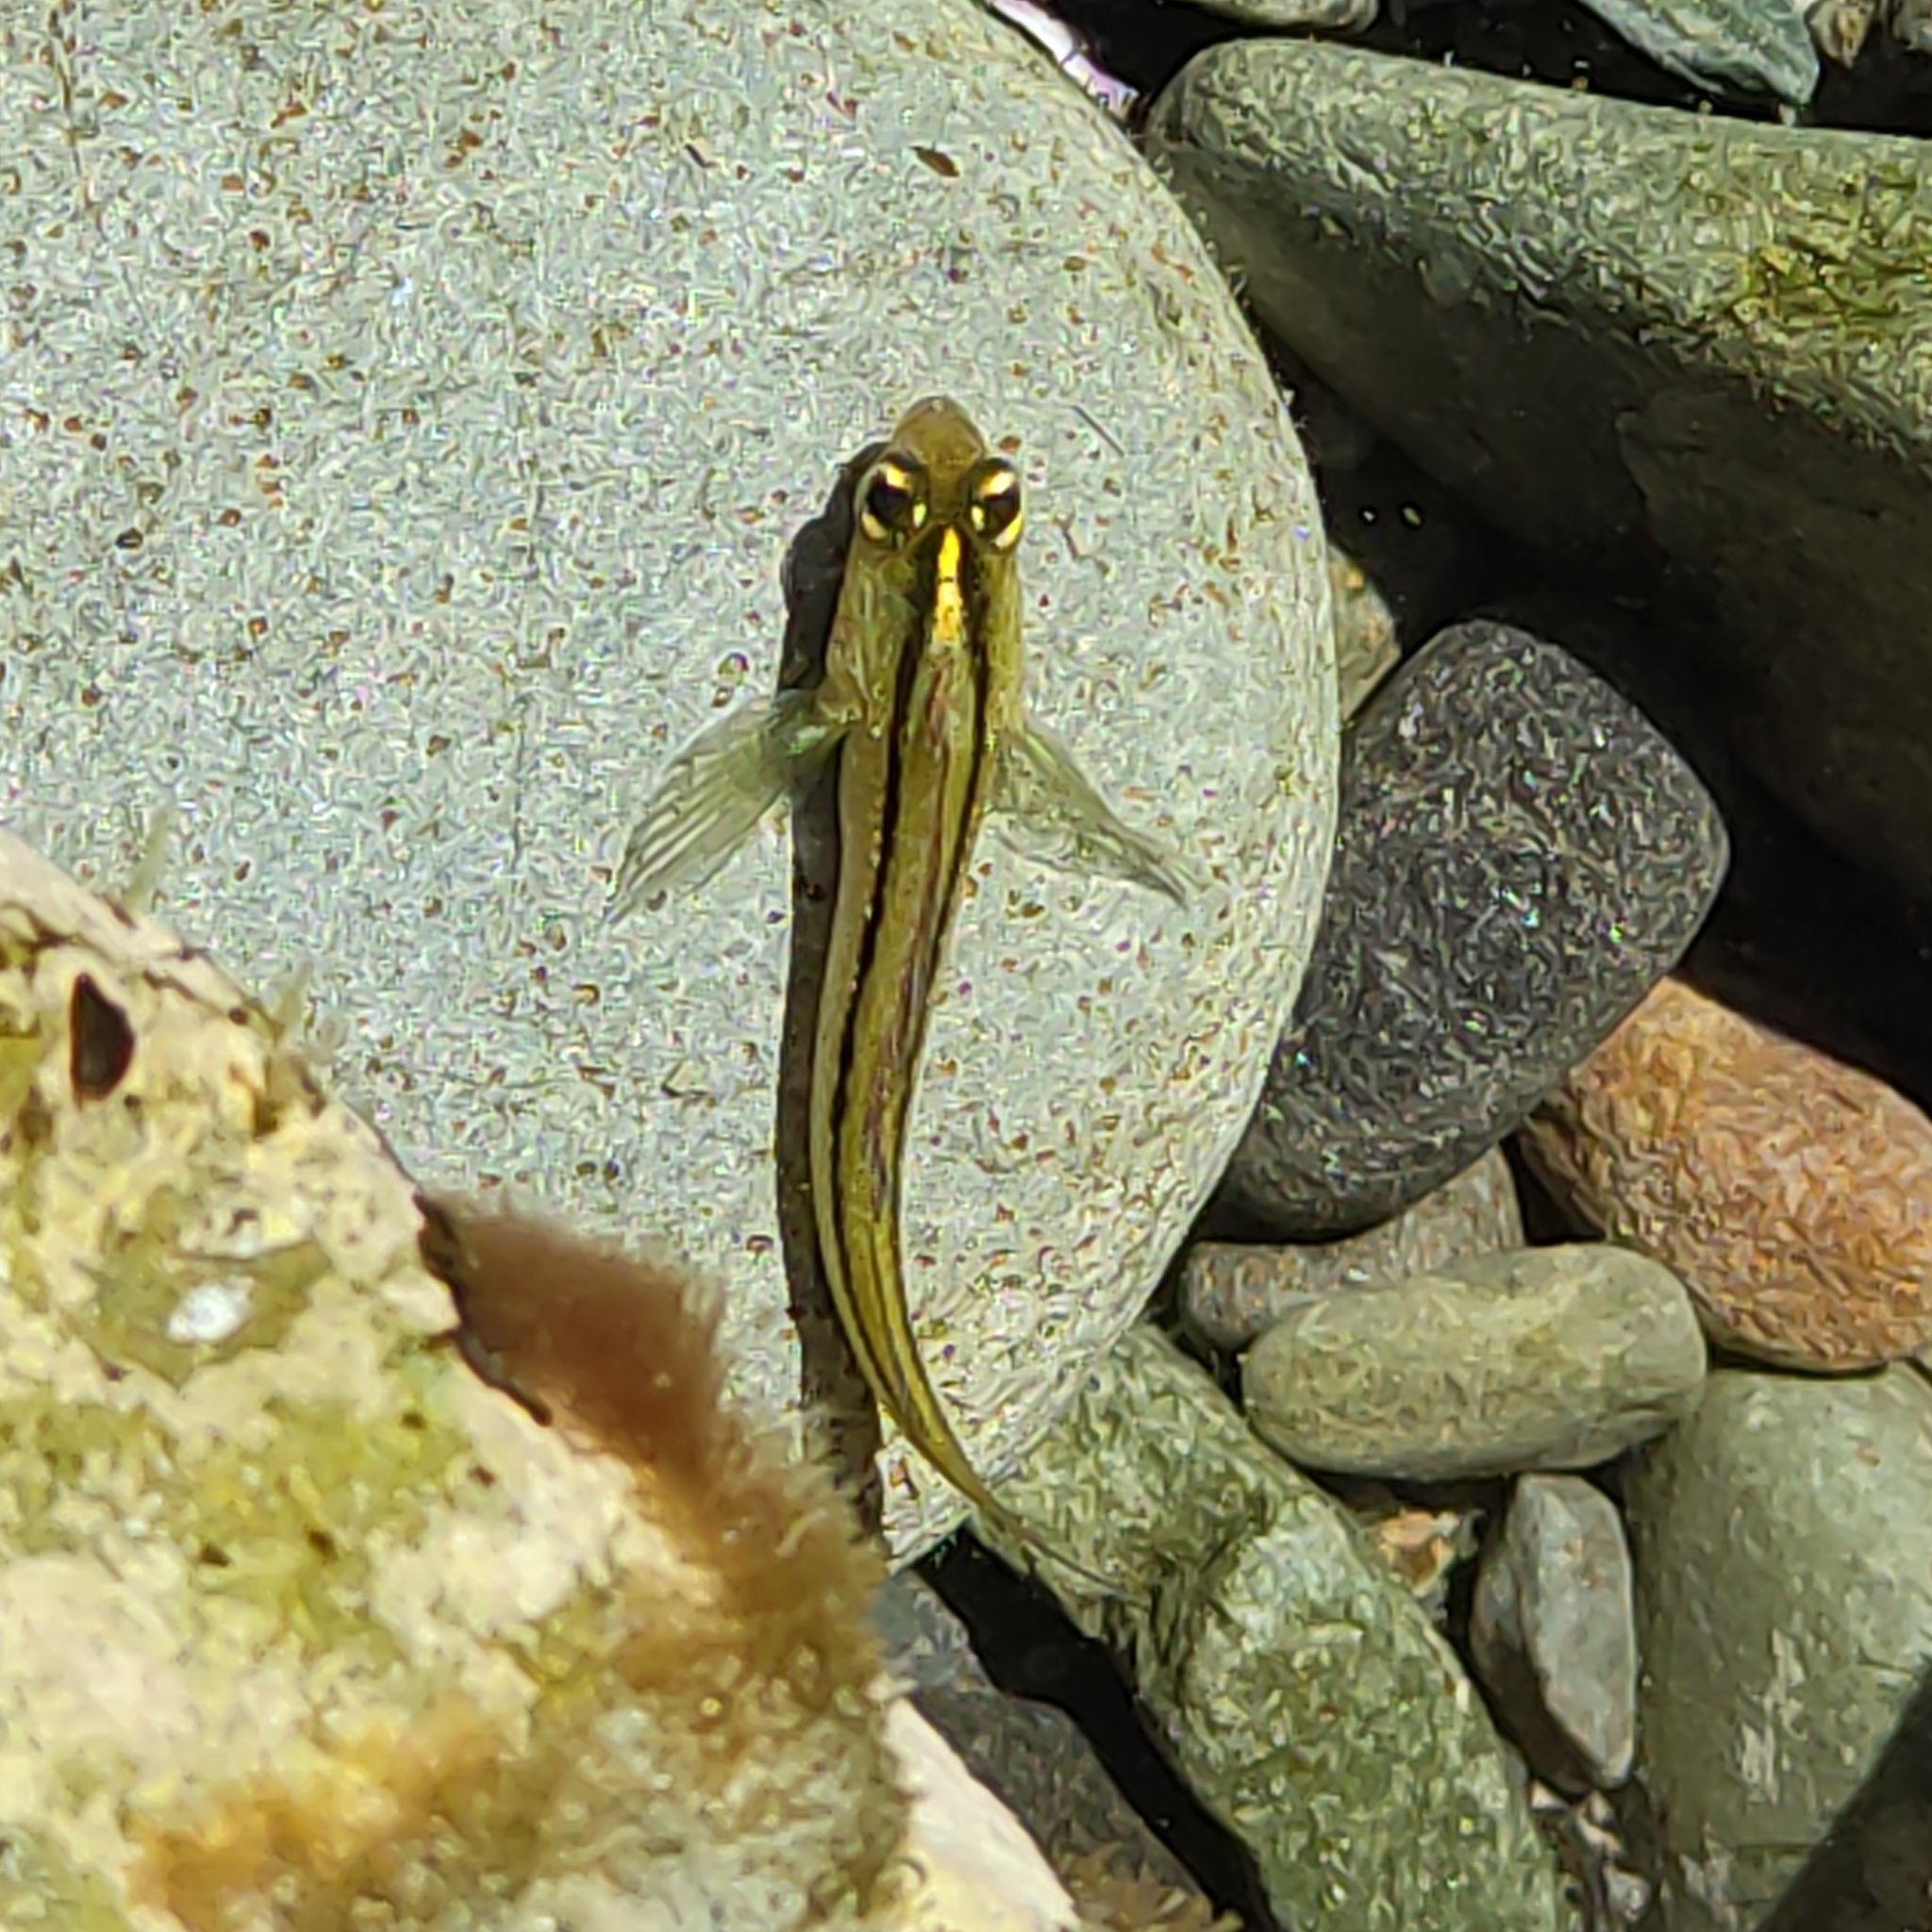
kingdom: Animalia
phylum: Chordata
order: Perciformes
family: Tripterygiidae
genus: Forsterygion
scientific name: Forsterygion lapillum
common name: Common triplefin
